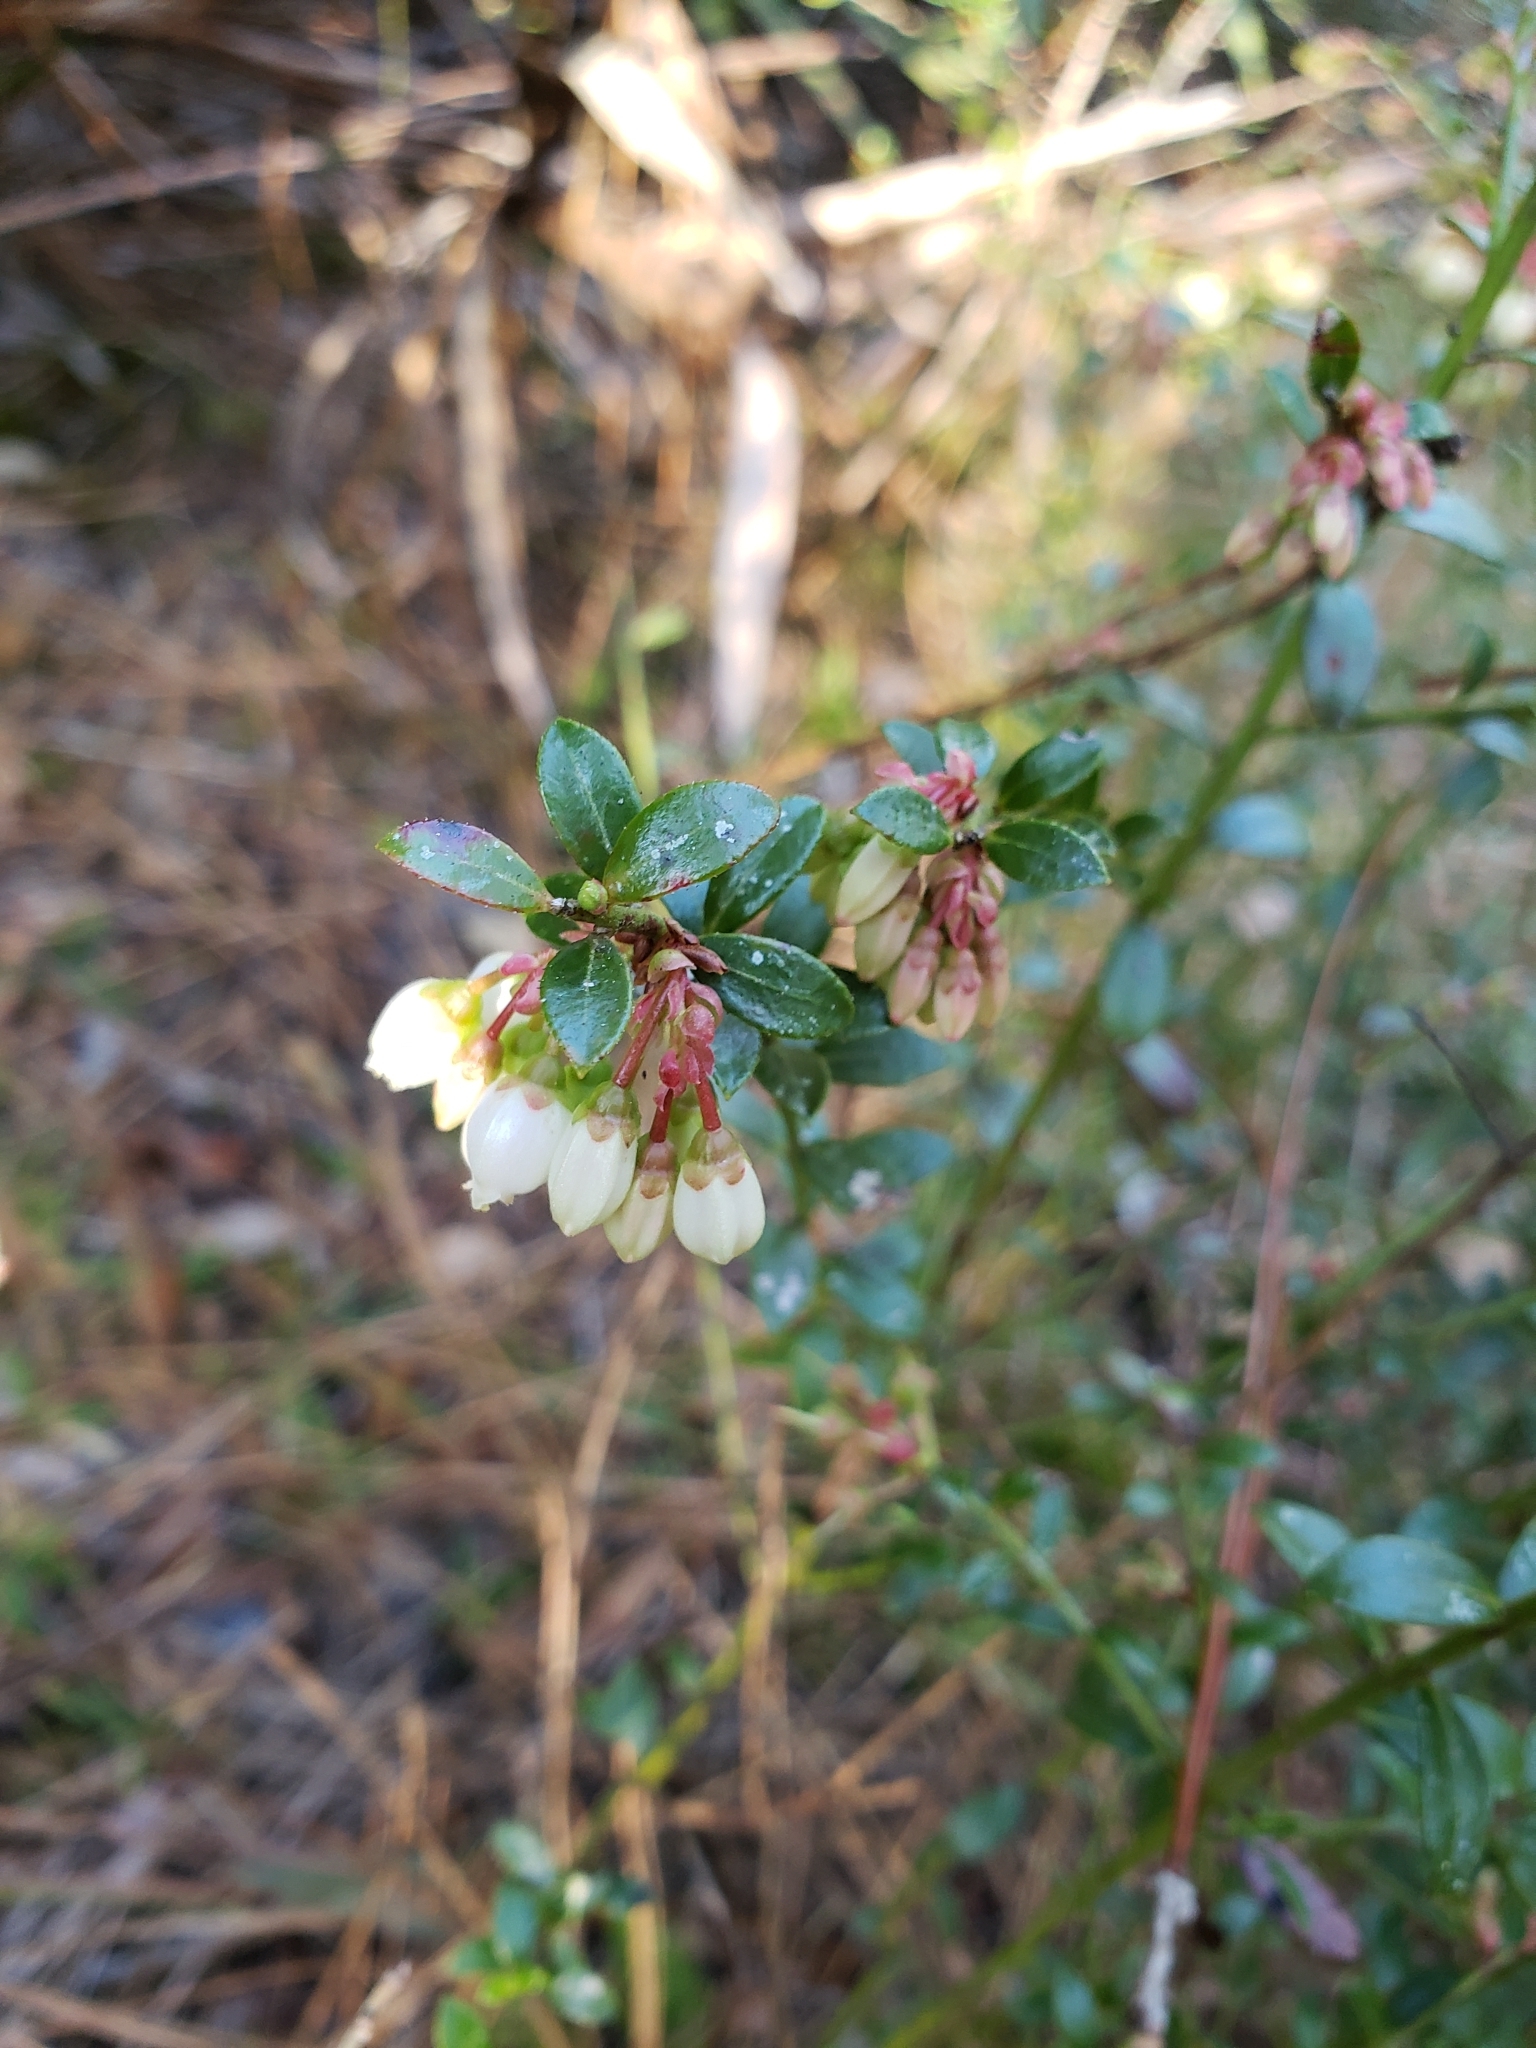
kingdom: Plantae
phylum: Tracheophyta
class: Magnoliopsida
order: Ericales
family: Ericaceae
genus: Vaccinium
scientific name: Vaccinium myrsinites
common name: Evergreen blueberry
